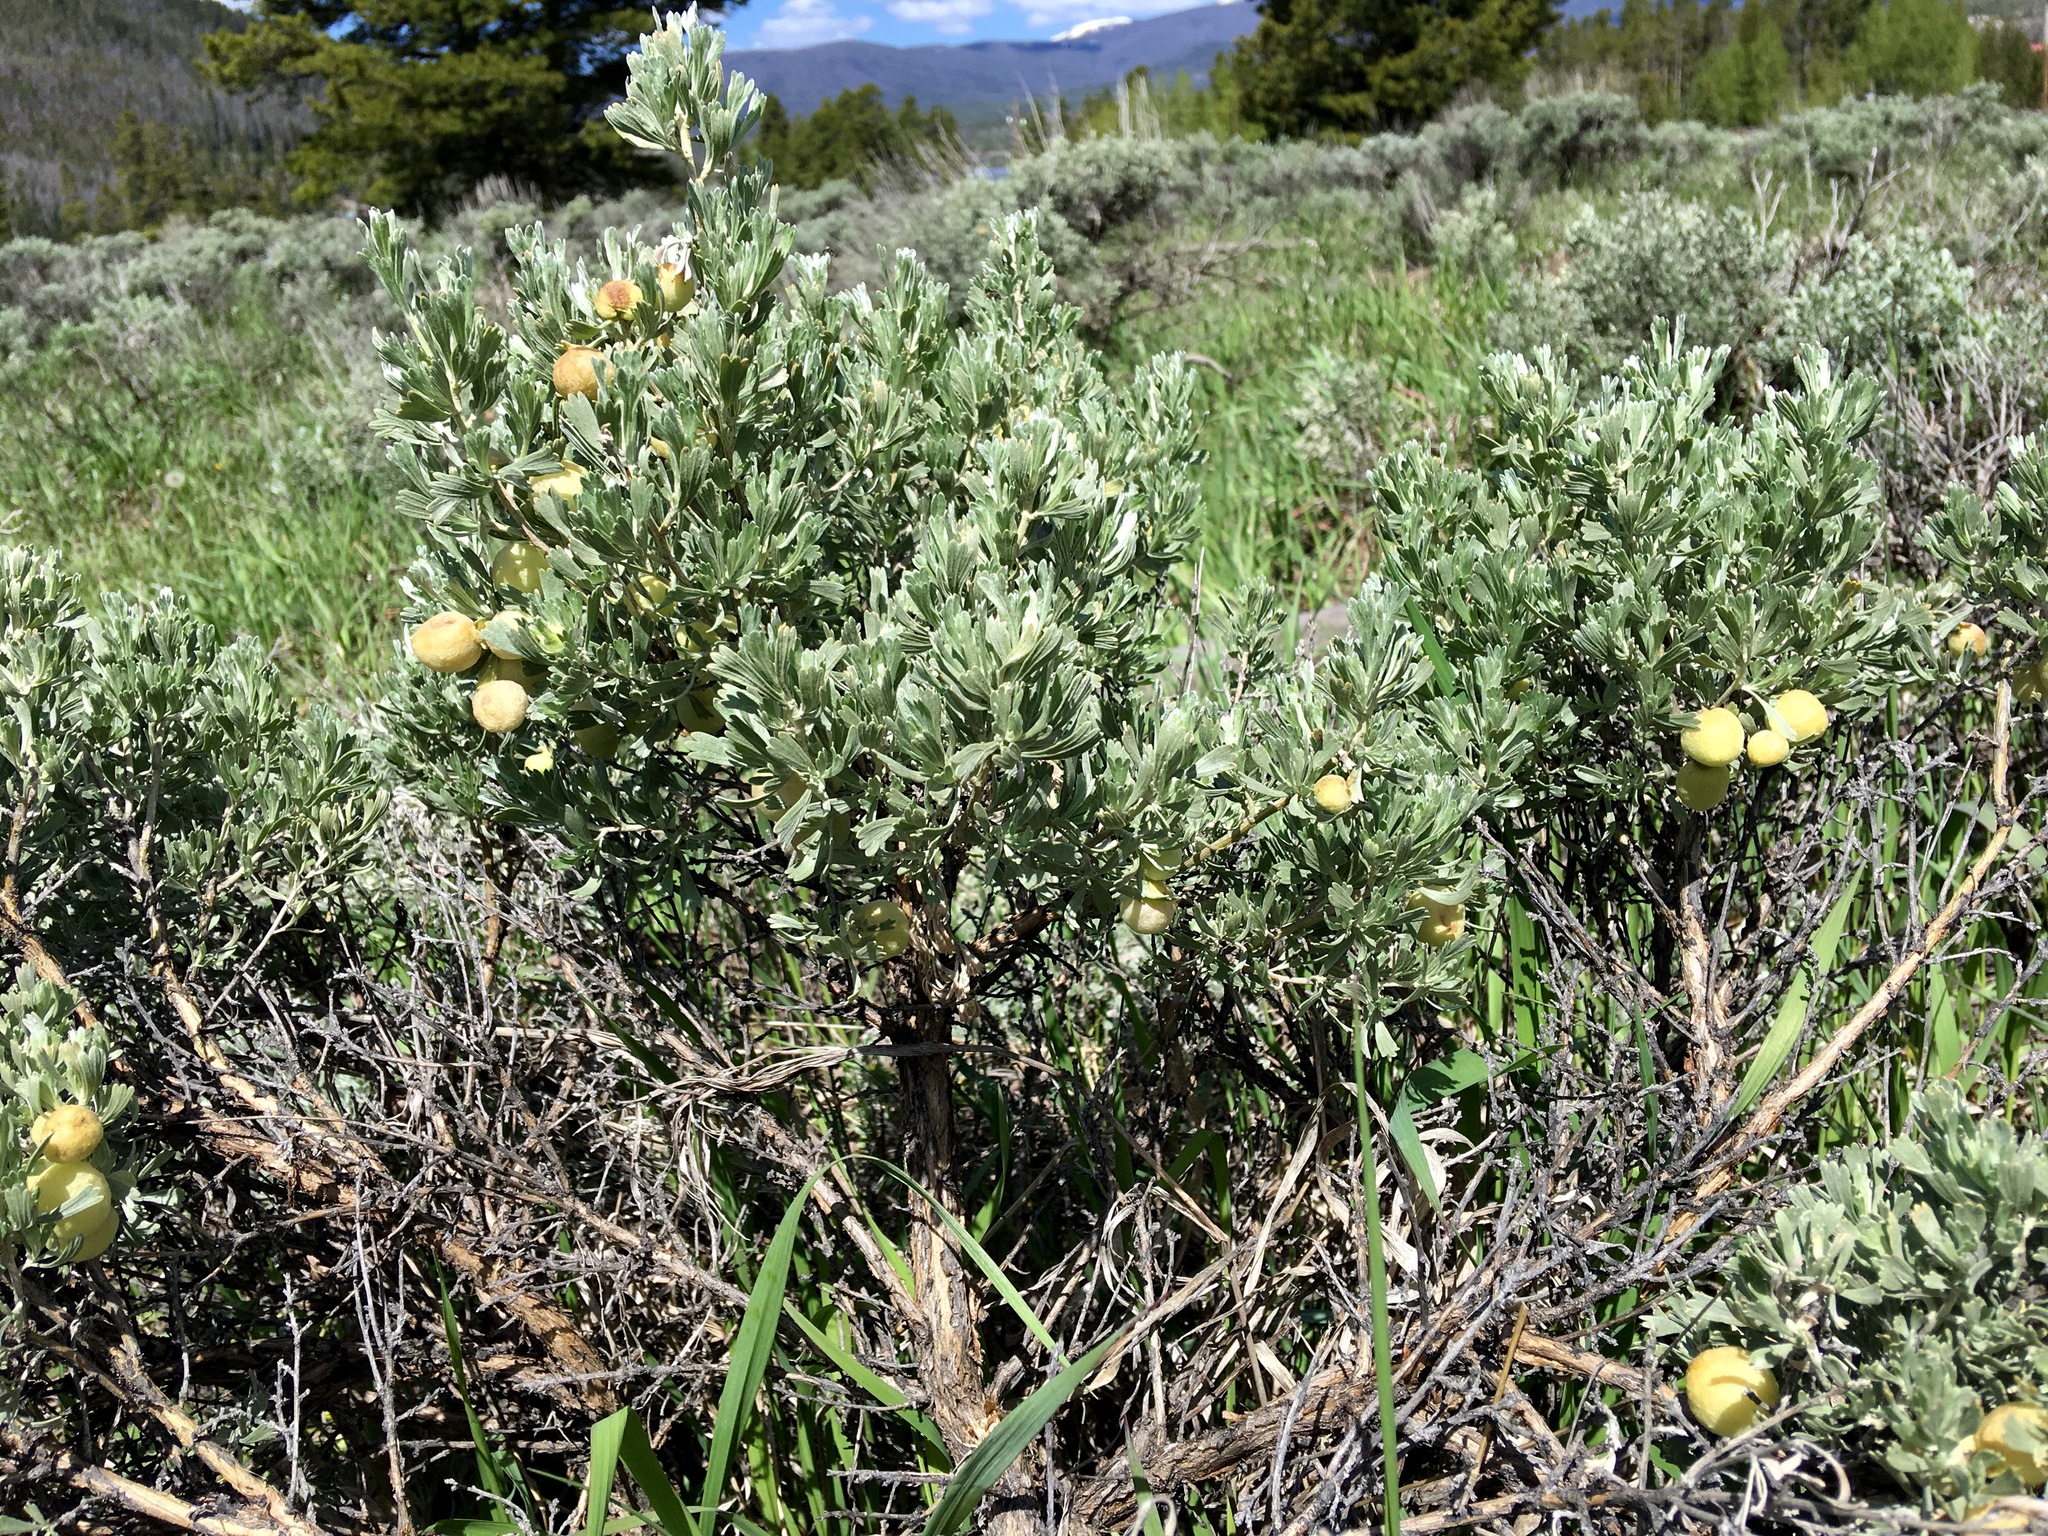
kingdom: Plantae
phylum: Tracheophyta
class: Magnoliopsida
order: Asterales
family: Asteraceae
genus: Artemisia
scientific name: Artemisia tridentata
